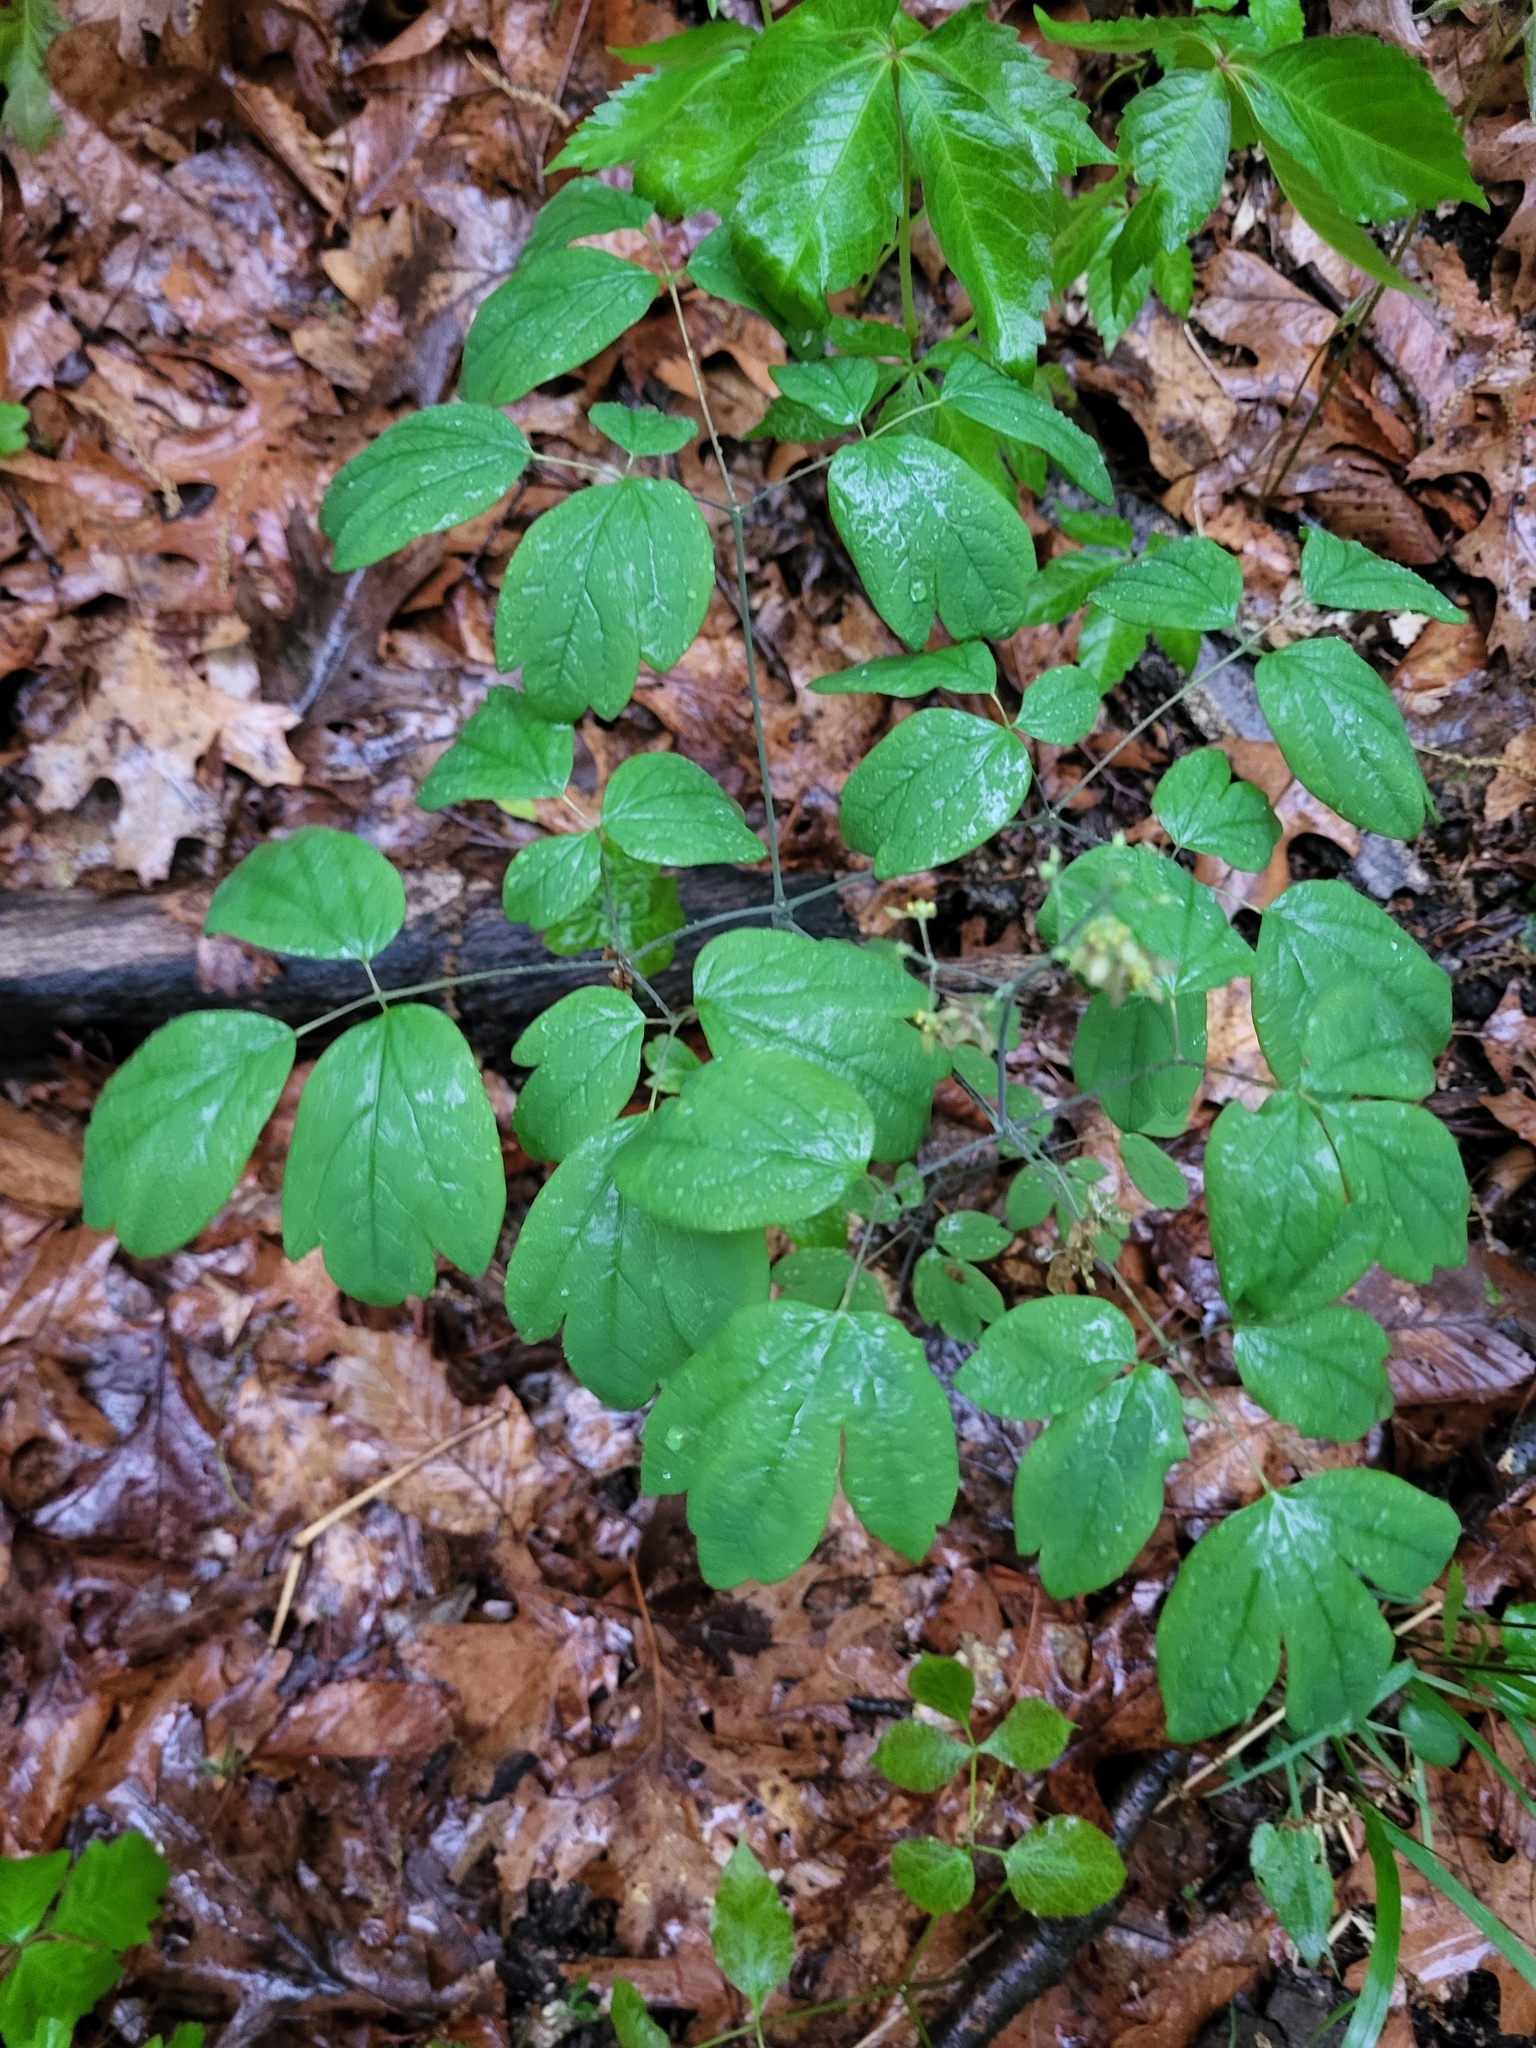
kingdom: Plantae
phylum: Tracheophyta
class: Magnoliopsida
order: Ranunculales
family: Berberidaceae
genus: Caulophyllum
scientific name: Caulophyllum thalictroides
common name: Blue cohosh
